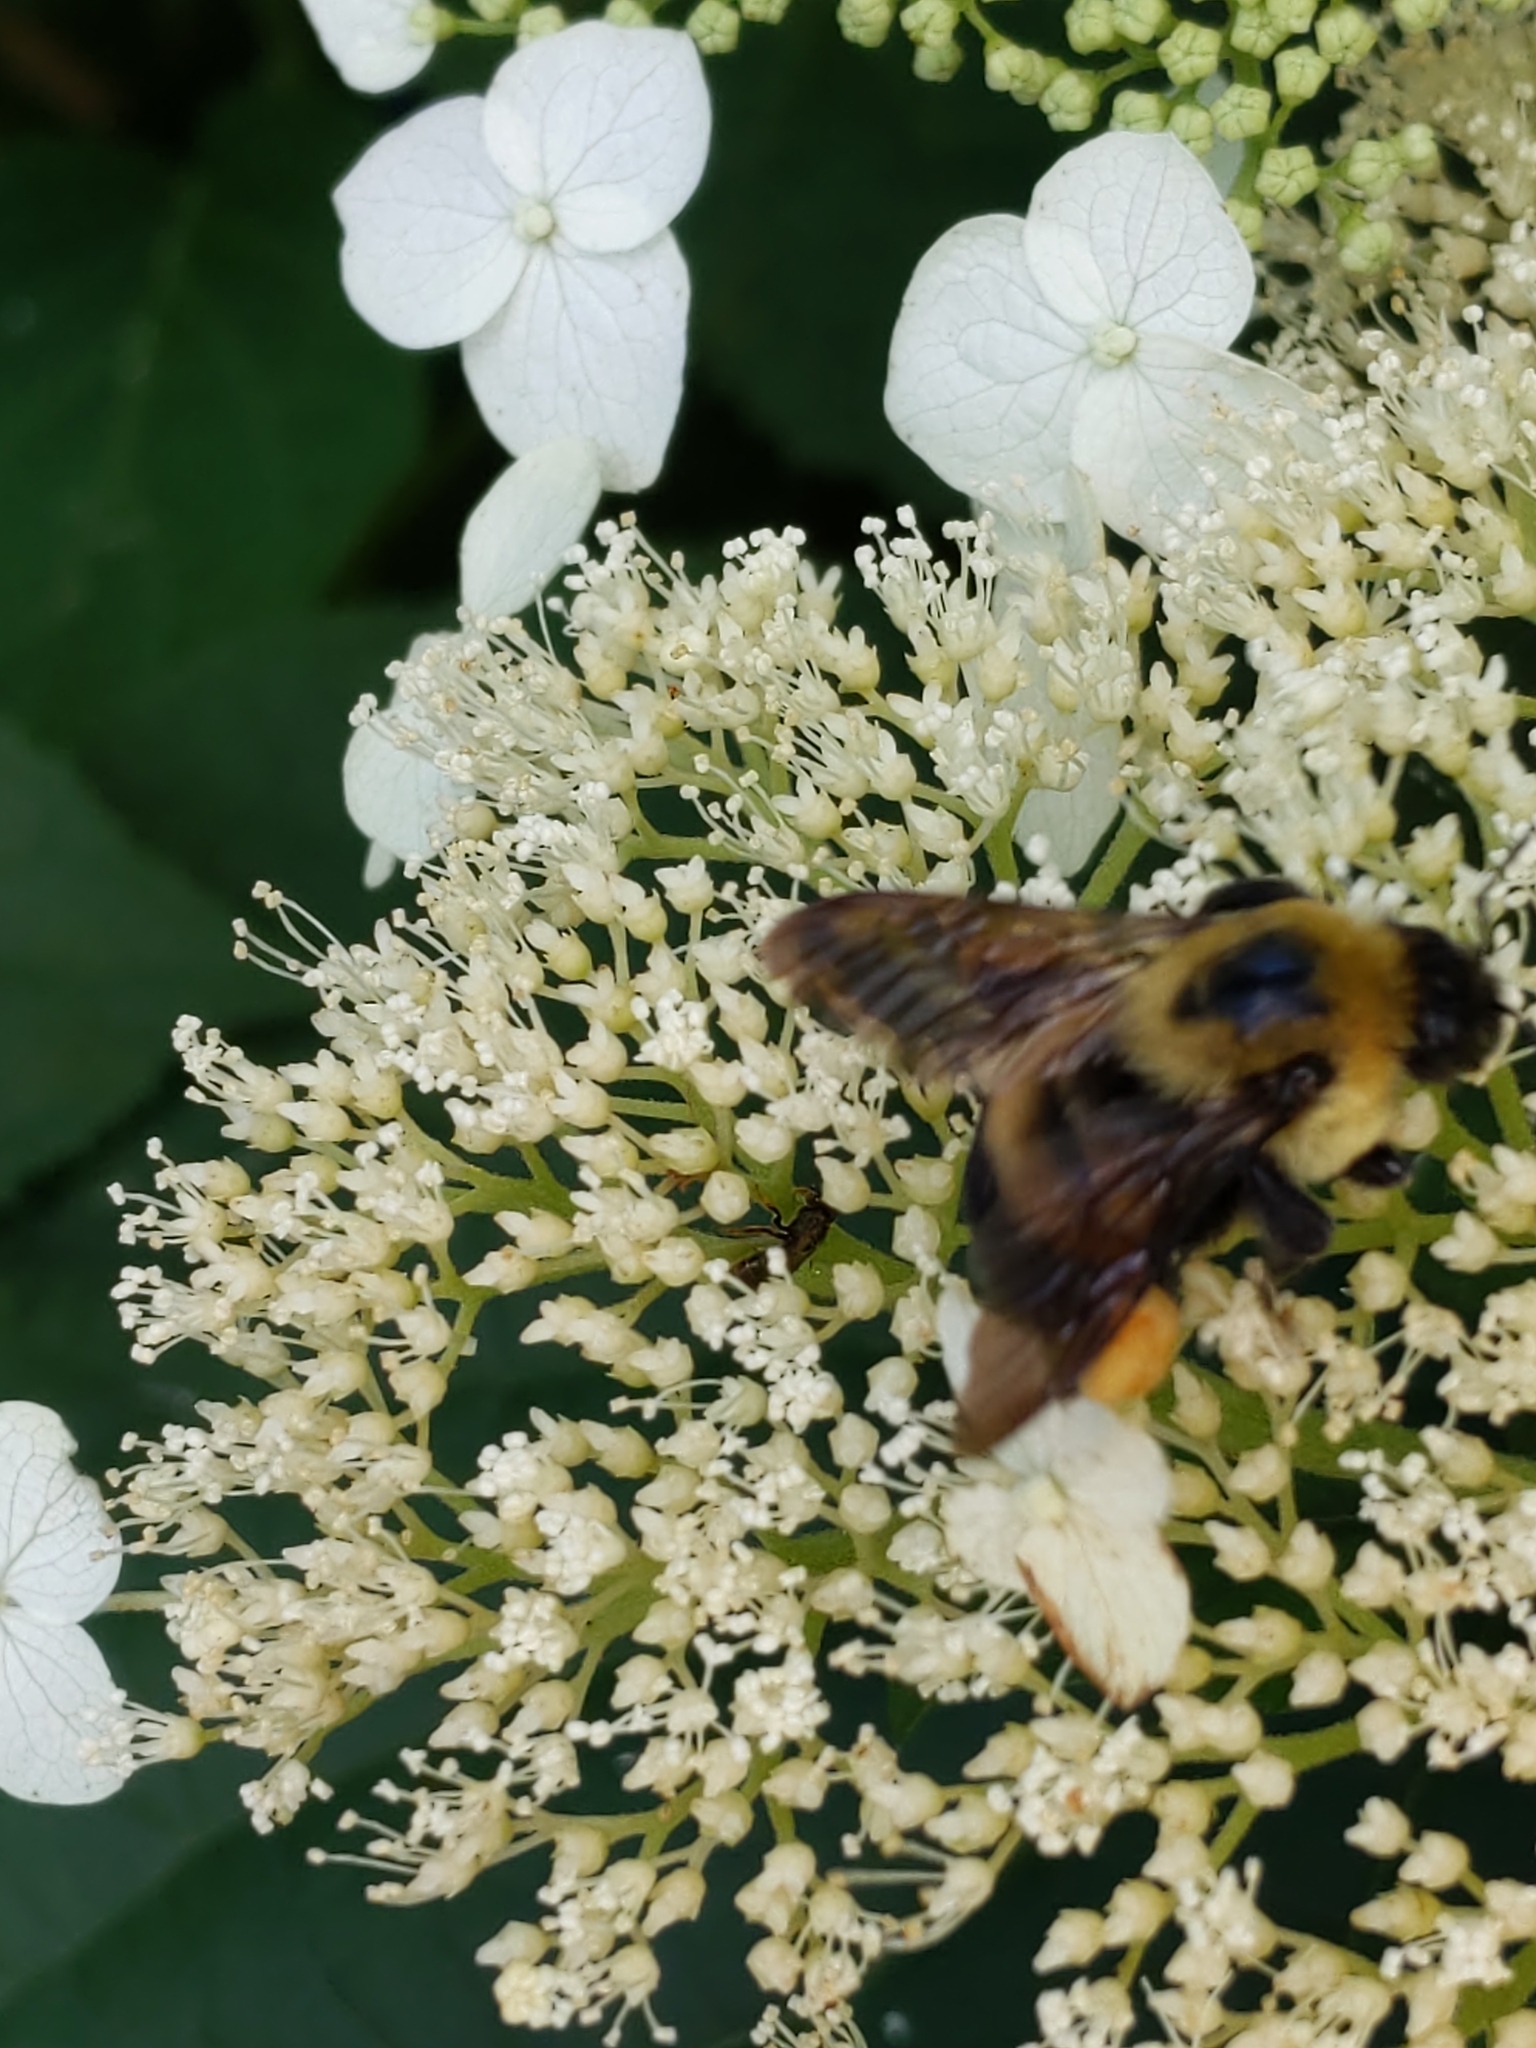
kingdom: Animalia
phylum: Arthropoda
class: Insecta
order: Hymenoptera
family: Apidae
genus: Bombus
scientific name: Bombus griseocollis
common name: Brown-belted bumble bee
